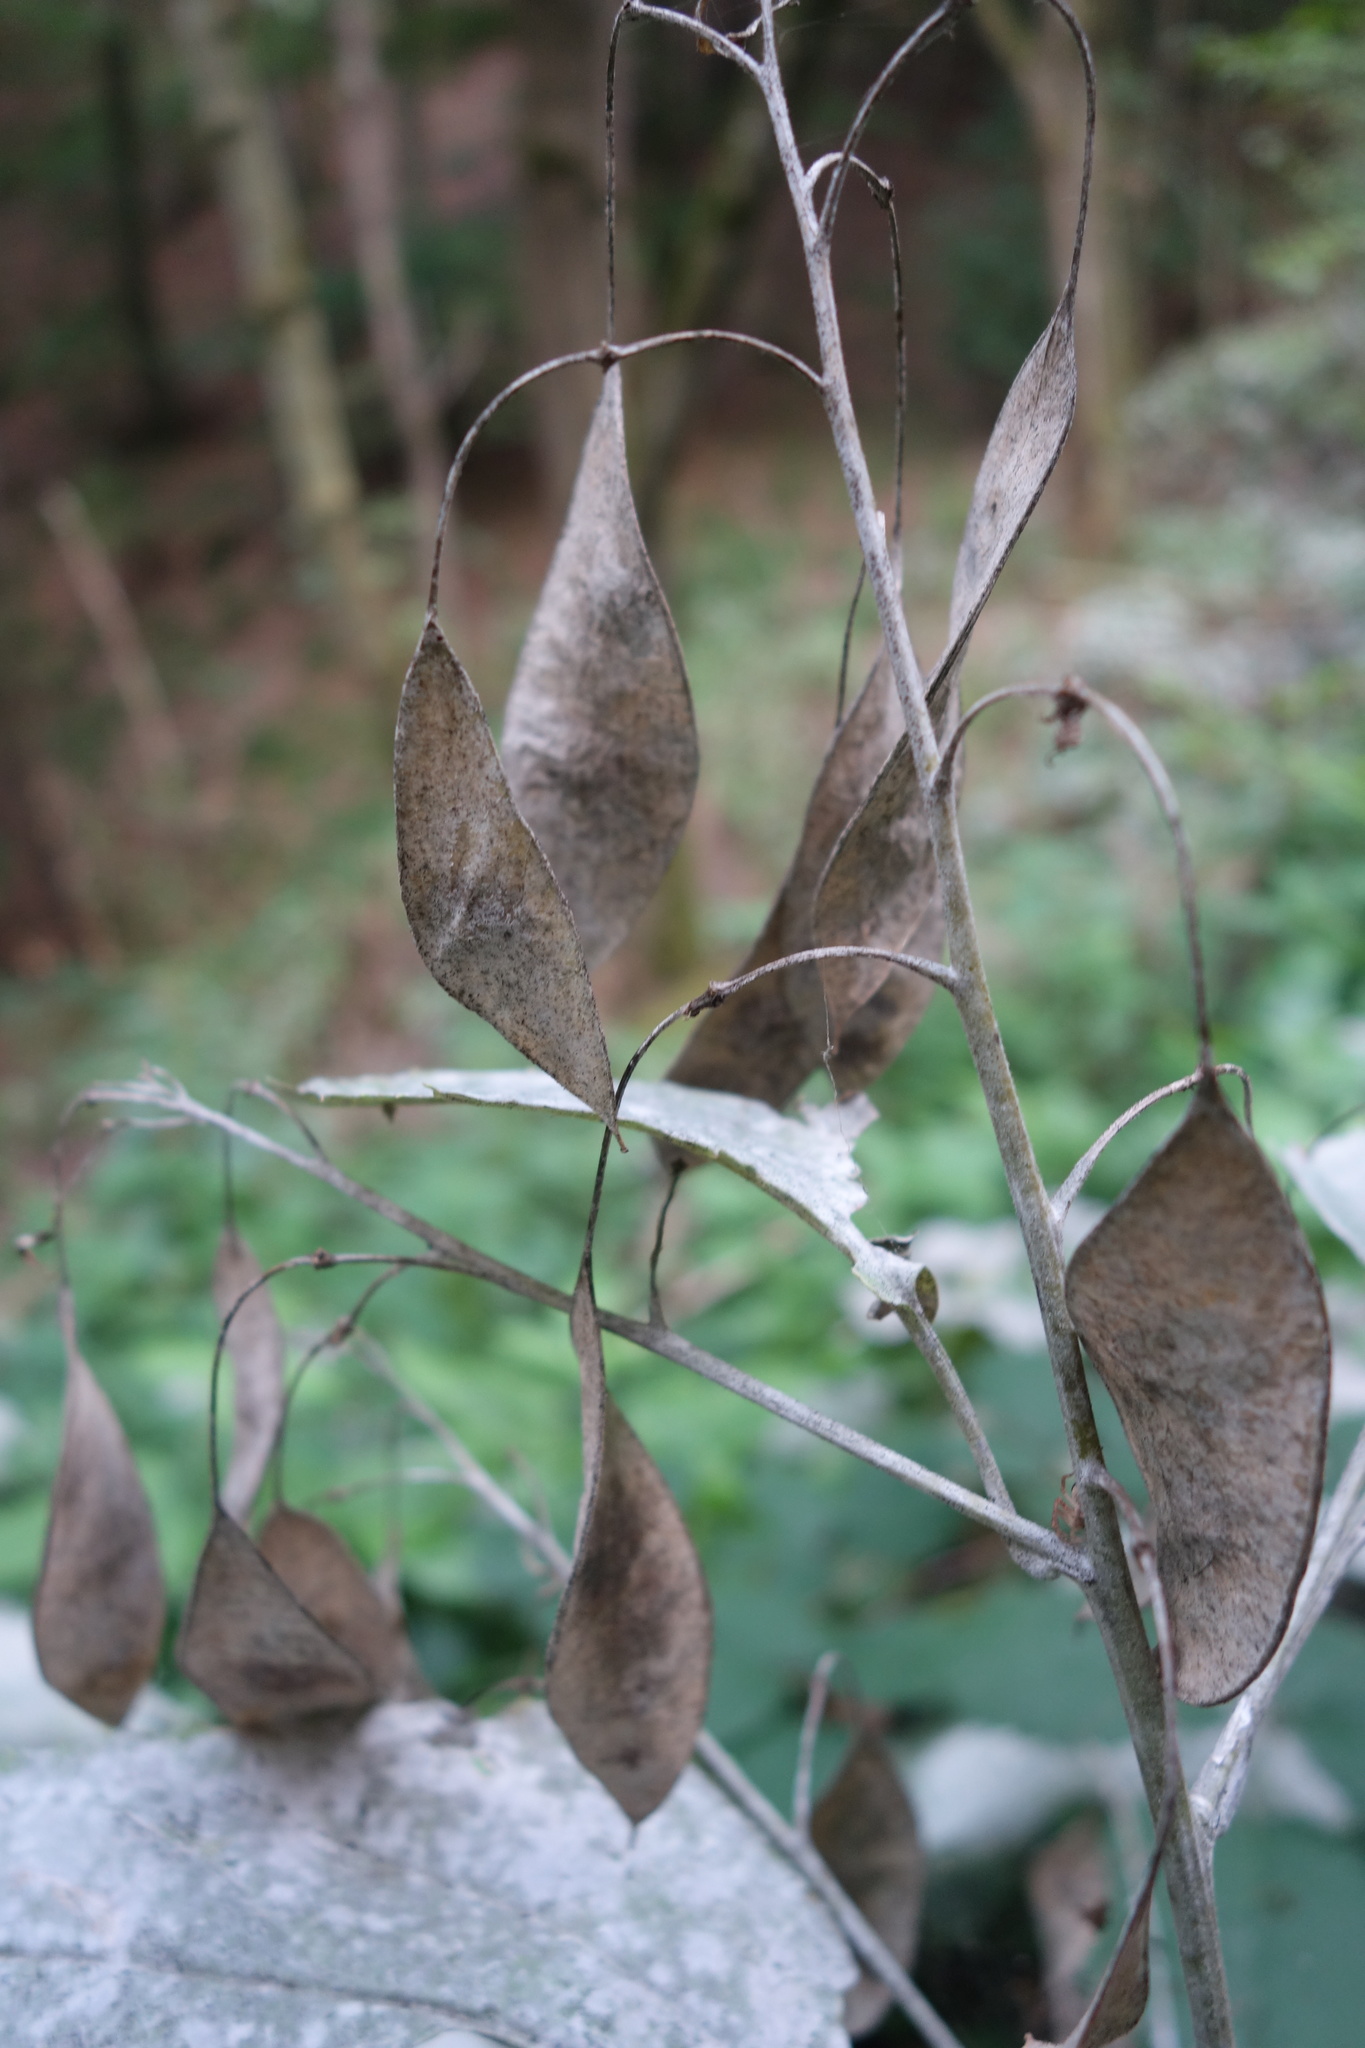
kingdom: Plantae
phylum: Tracheophyta
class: Magnoliopsida
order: Brassicales
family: Brassicaceae
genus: Lunaria
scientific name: Lunaria rediviva
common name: Perennial honesty
